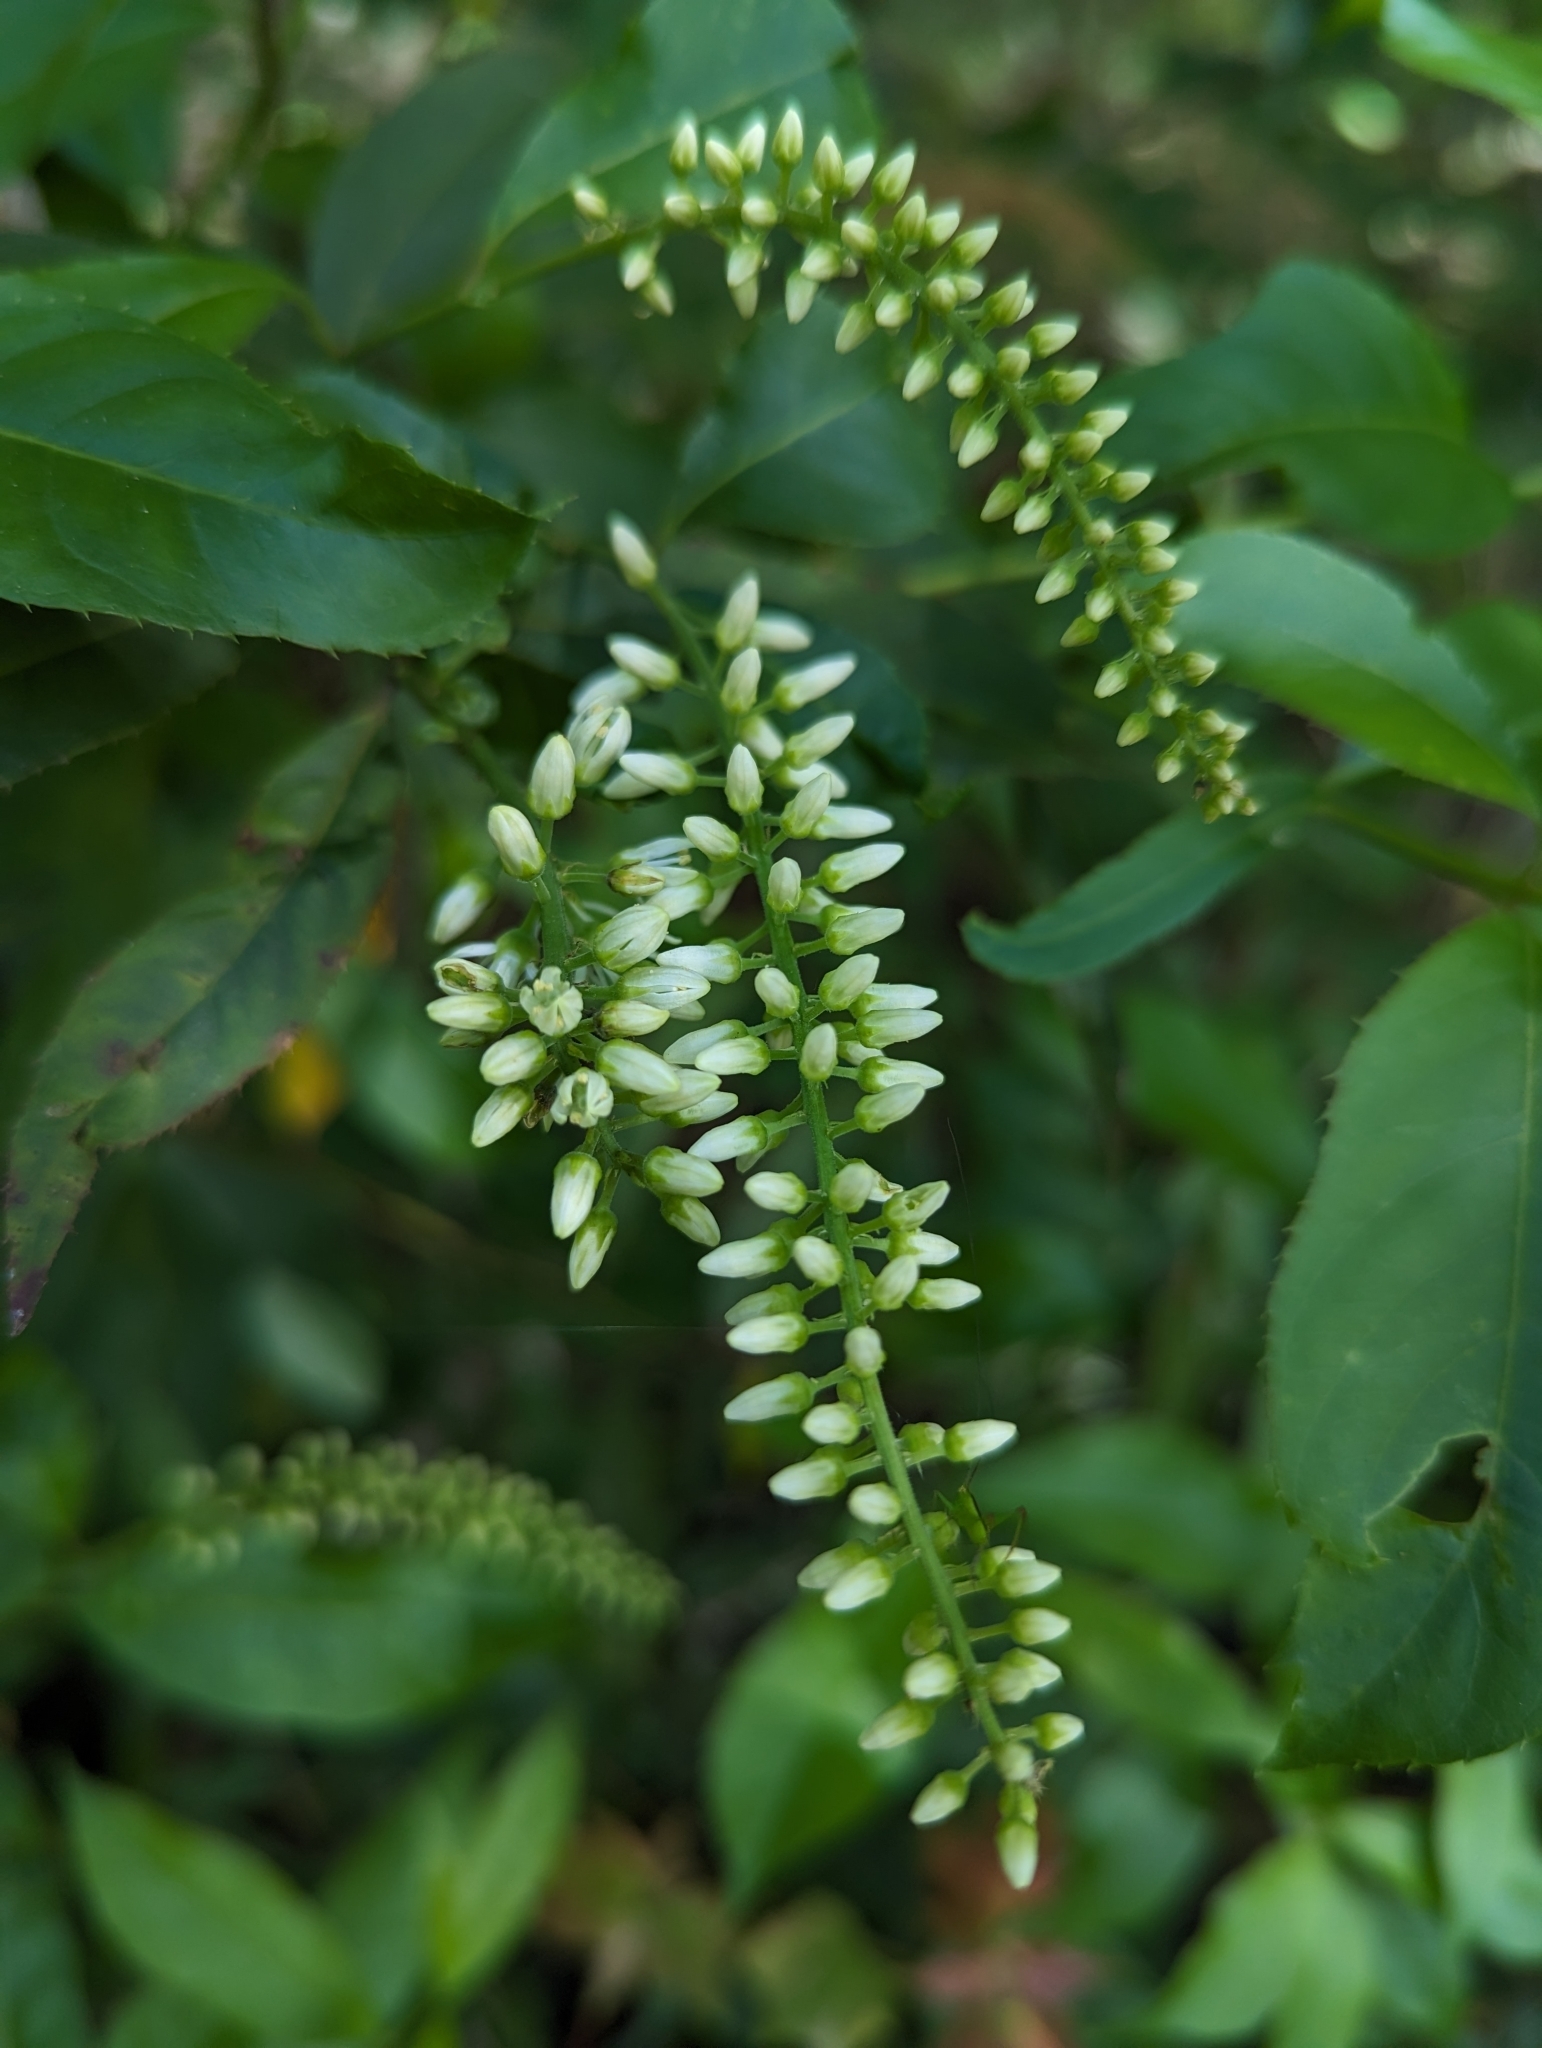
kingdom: Plantae
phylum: Tracheophyta
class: Magnoliopsida
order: Saxifragales
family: Iteaceae
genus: Itea
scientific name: Itea virginica
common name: Sweetspire
